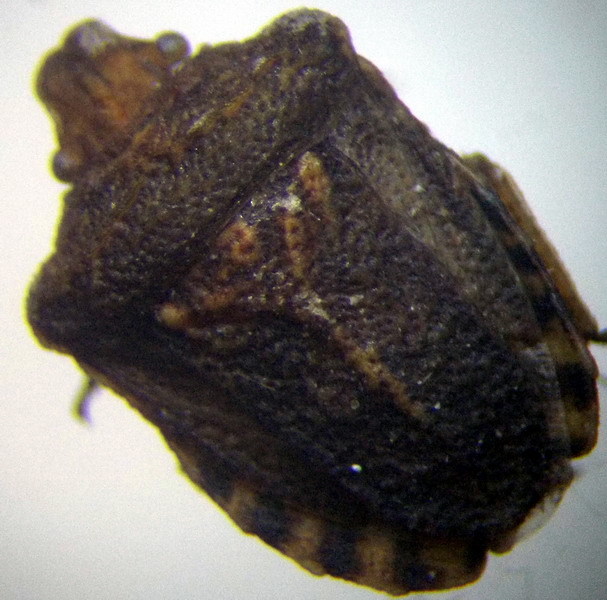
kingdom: Animalia
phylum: Arthropoda
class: Insecta
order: Hemiptera
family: Pentatomidae
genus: Leprosoma
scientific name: Leprosoma inconspicuum
